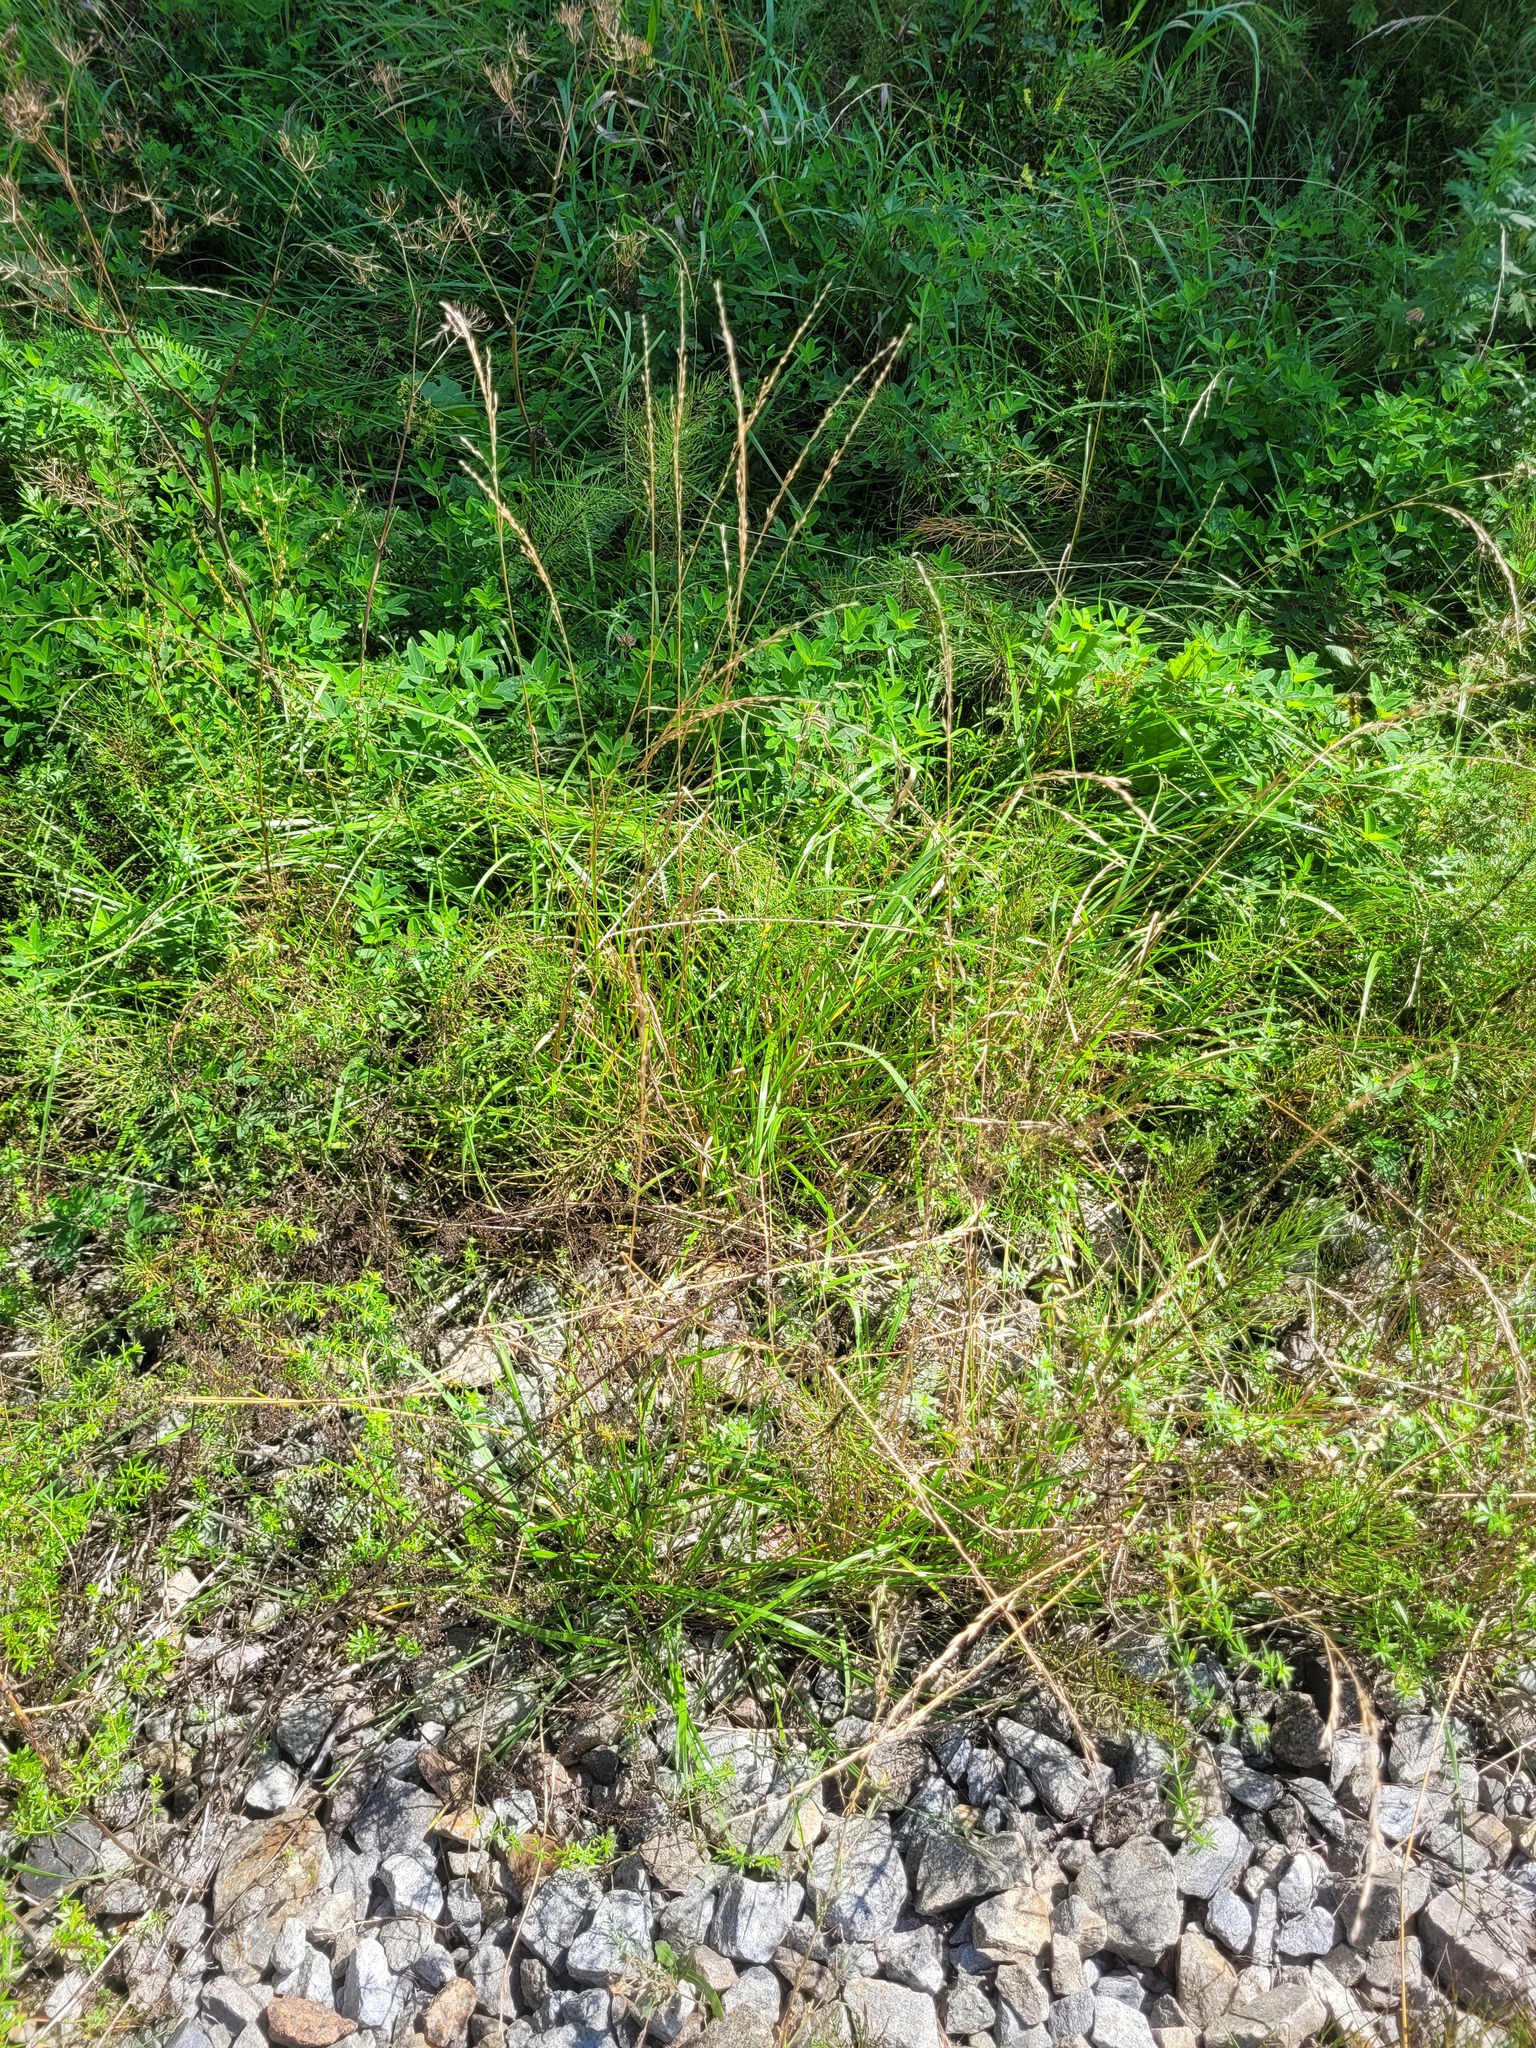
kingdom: Plantae
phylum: Tracheophyta
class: Liliopsida
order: Poales
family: Poaceae
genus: Lolium
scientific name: Lolium pratense
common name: Dover grass
